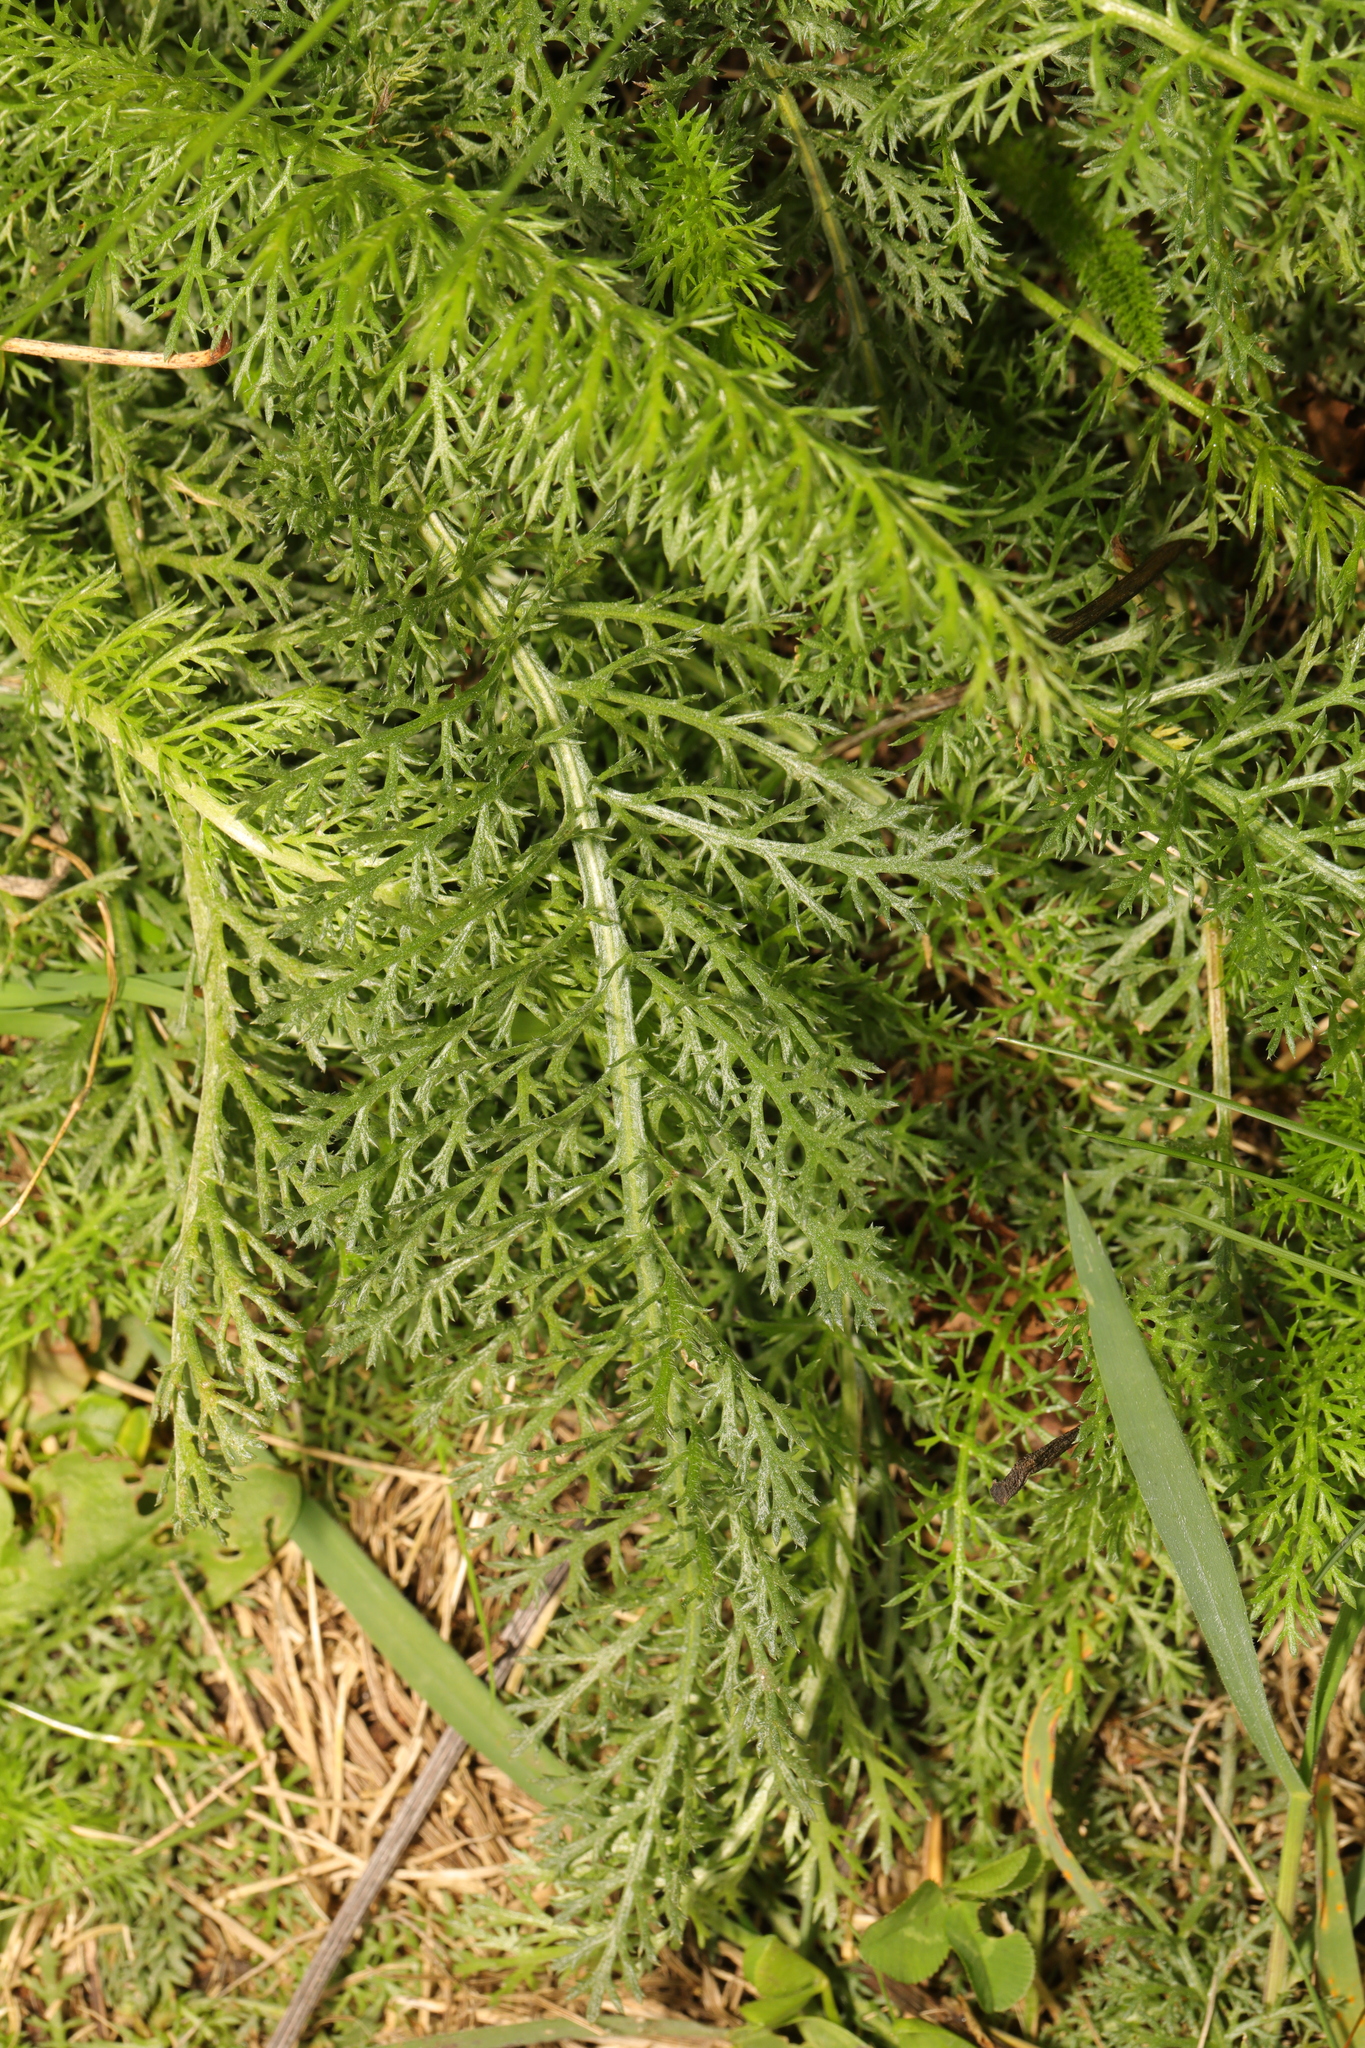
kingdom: Plantae
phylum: Tracheophyta
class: Magnoliopsida
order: Asterales
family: Asteraceae
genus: Achillea
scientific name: Achillea millefolium
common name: Yarrow
